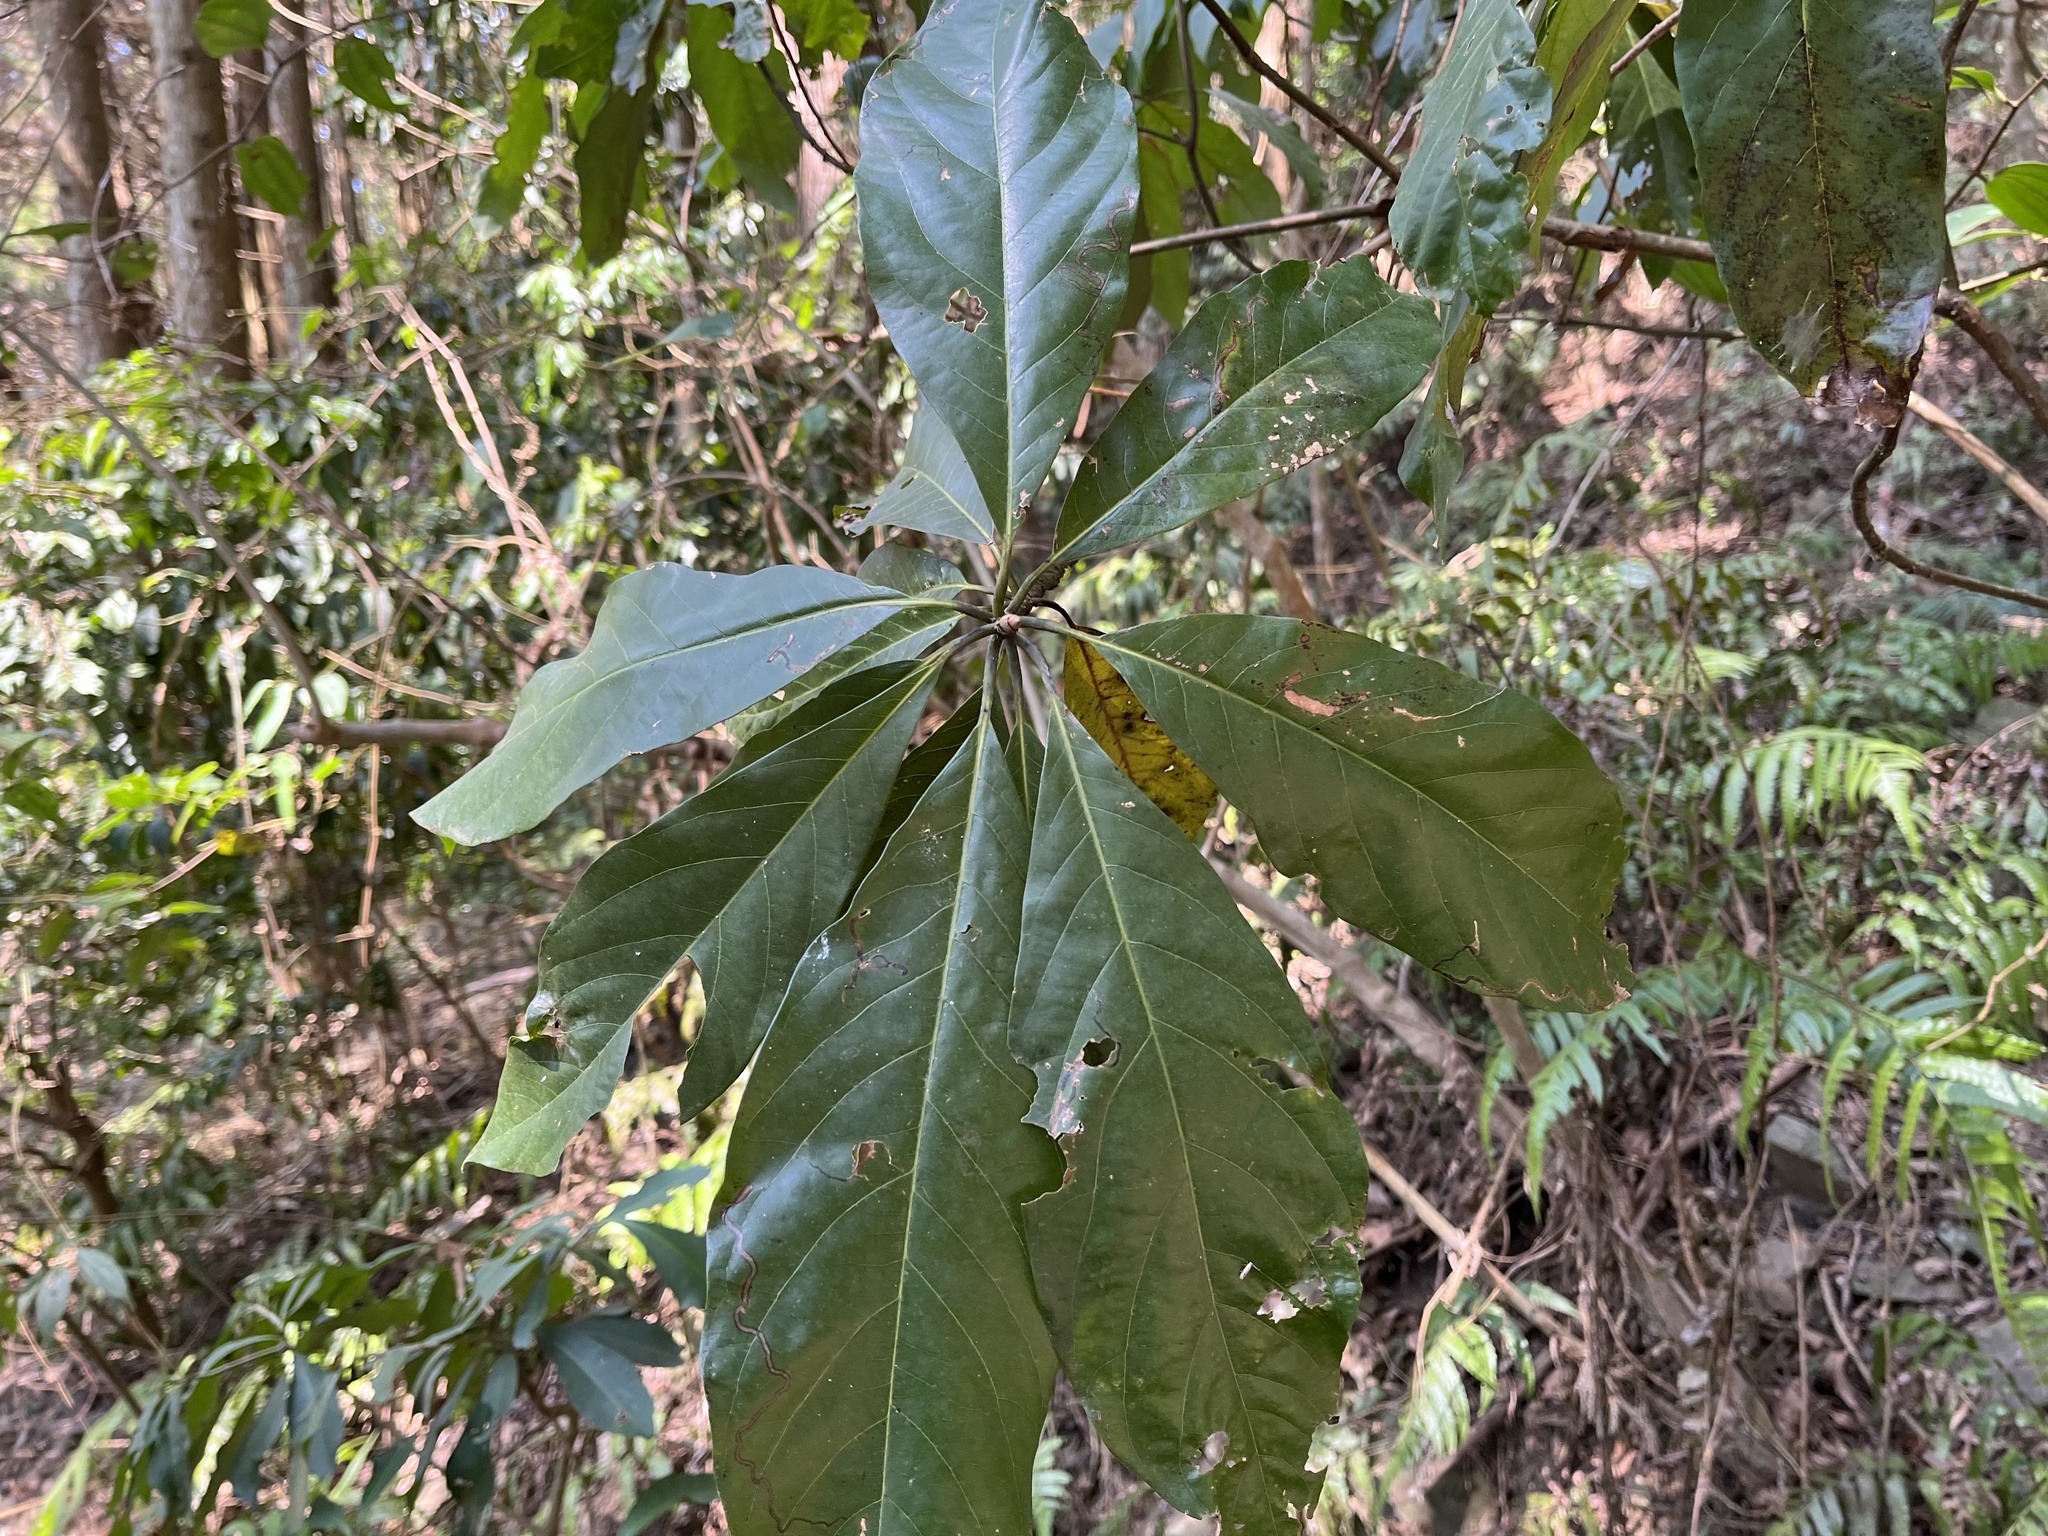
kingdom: Plantae
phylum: Tracheophyta
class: Magnoliopsida
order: Laurales
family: Lauraceae
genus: Lindera
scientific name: Lindera megaphylla
